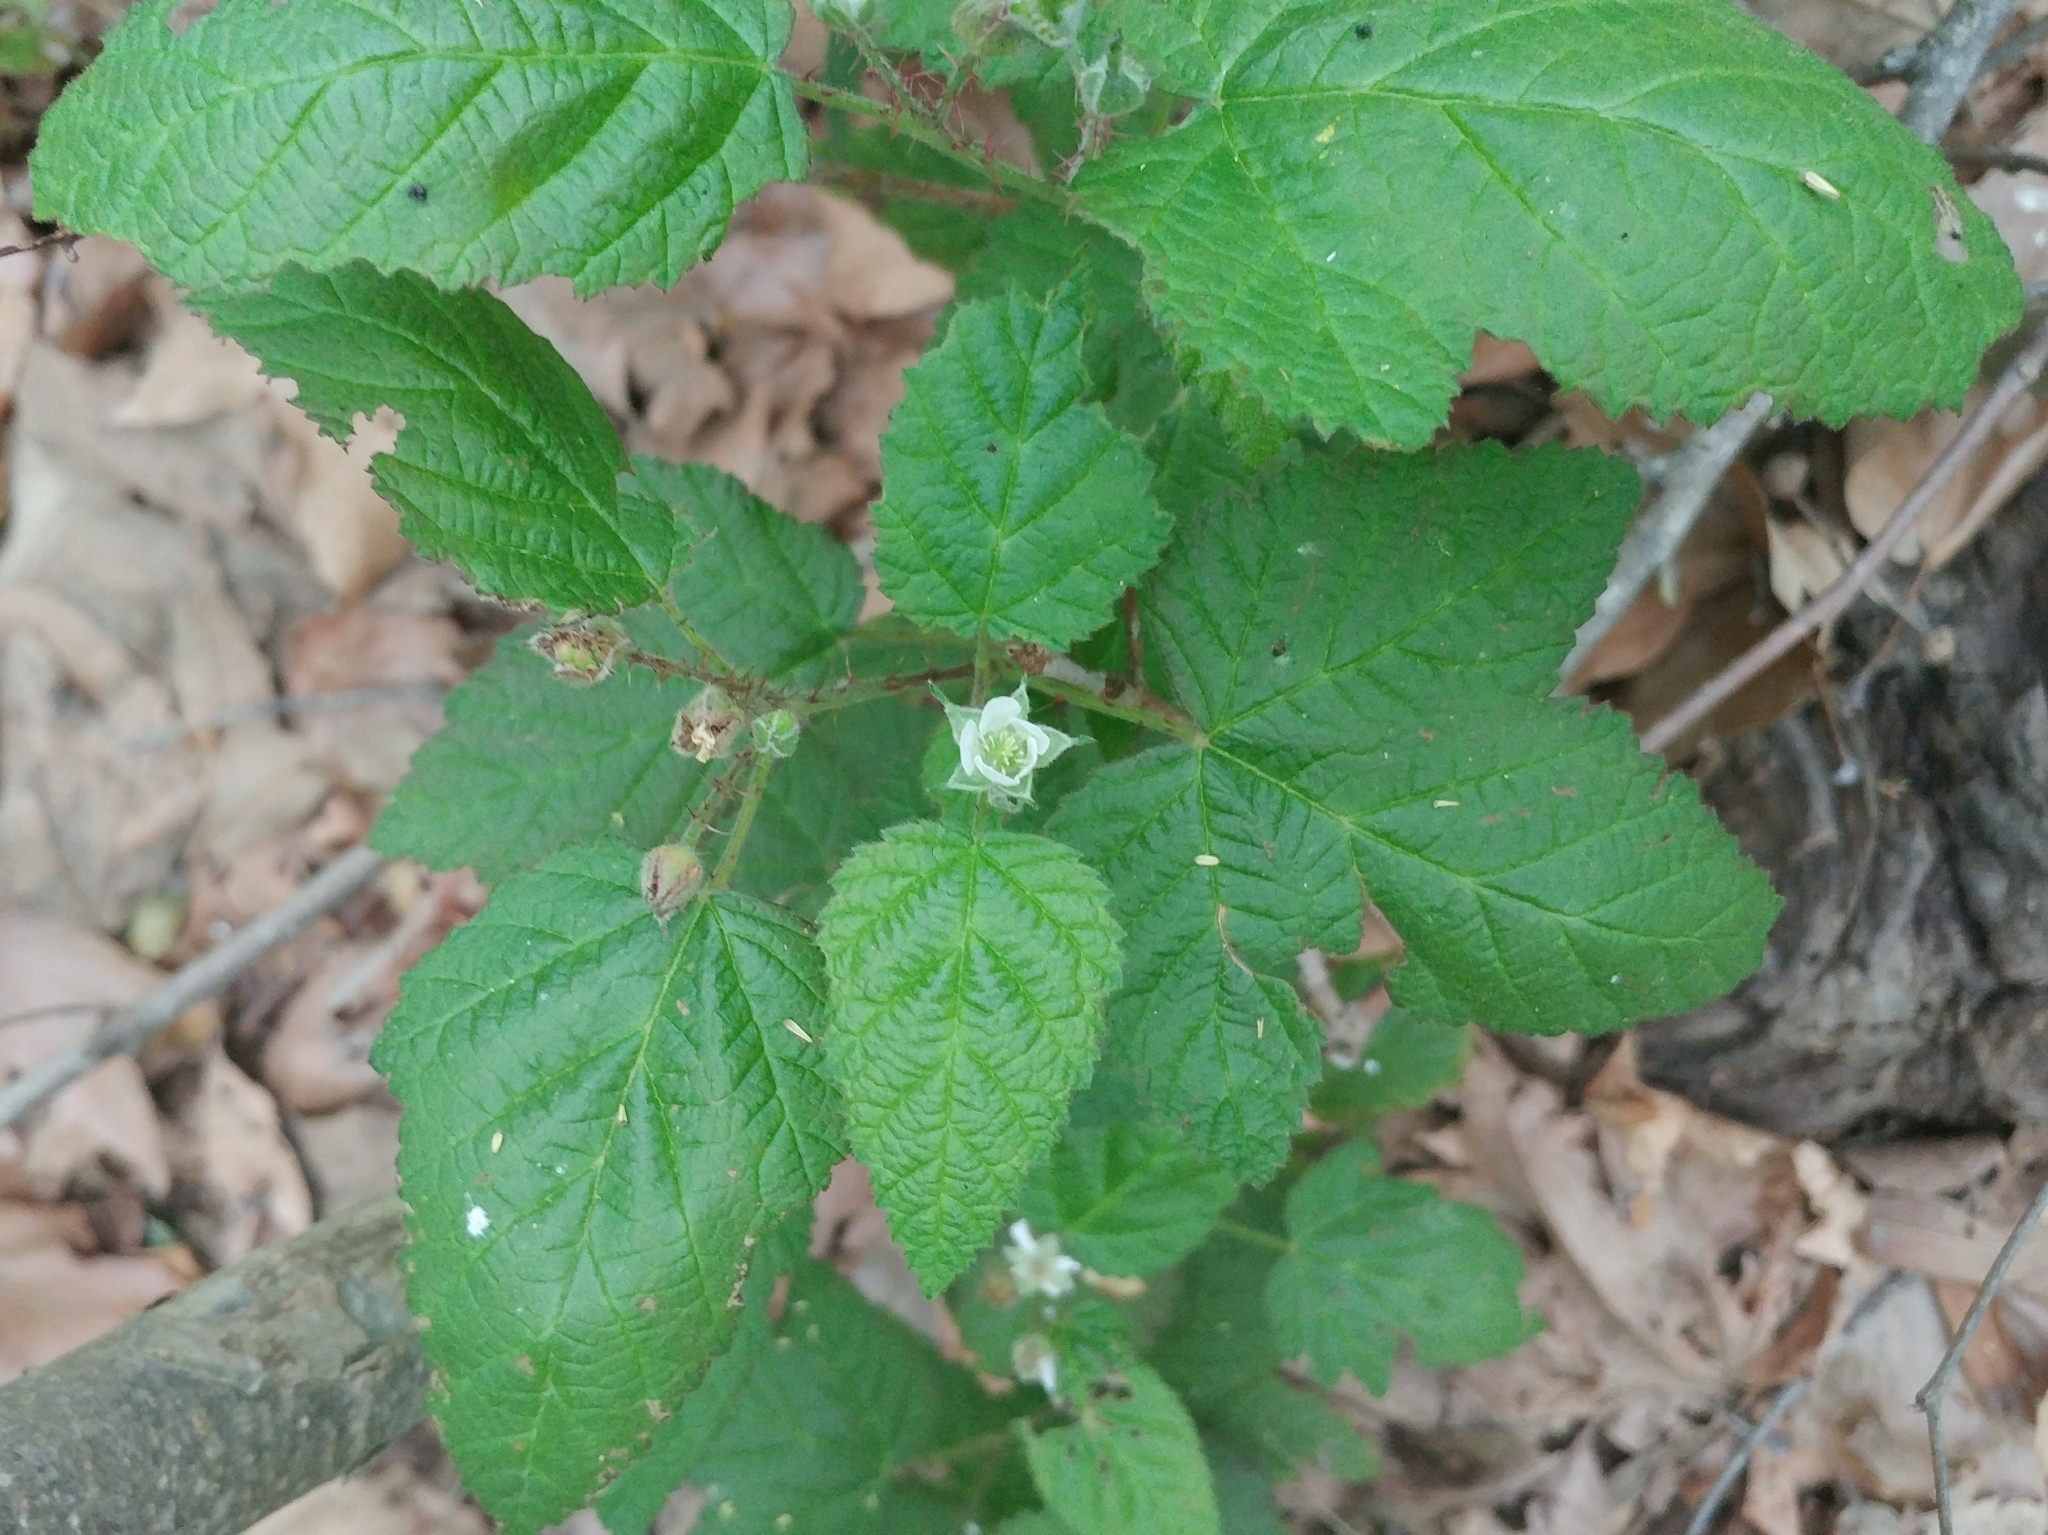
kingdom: Plantae
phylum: Tracheophyta
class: Magnoliopsida
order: Rosales
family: Rosaceae
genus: Rubus
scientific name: Rubus ursinus
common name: Pacific blackberry
